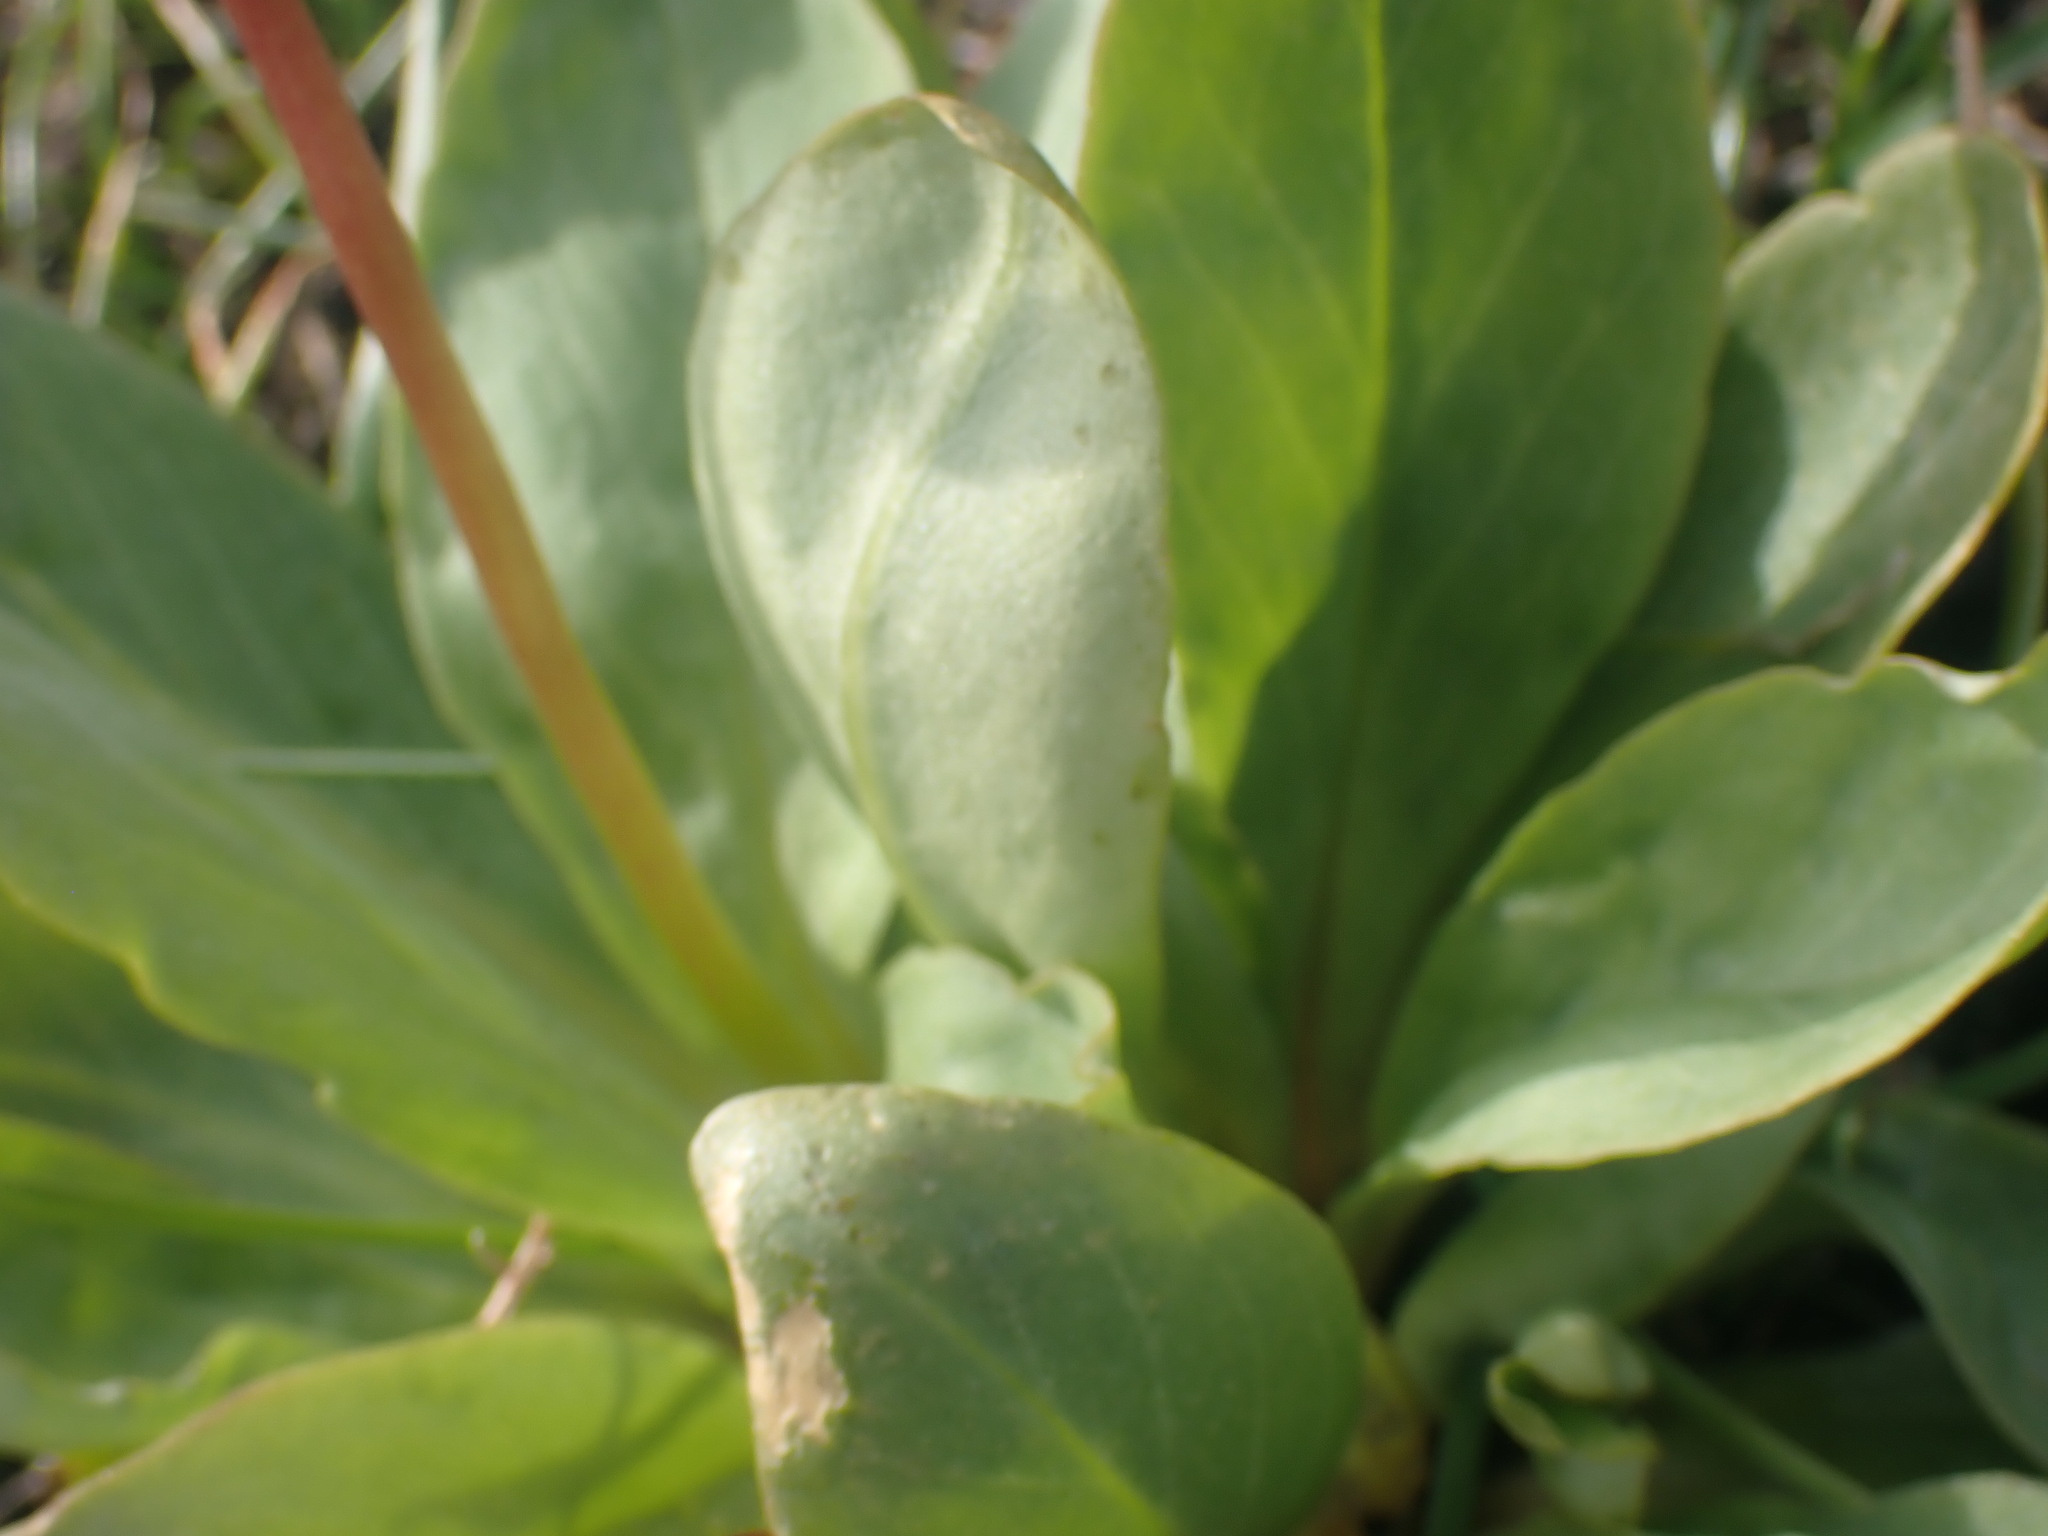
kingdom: Plantae
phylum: Tracheophyta
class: Magnoliopsida
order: Ericales
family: Primulaceae
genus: Dodecatheon
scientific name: Dodecatheon pulchellum
